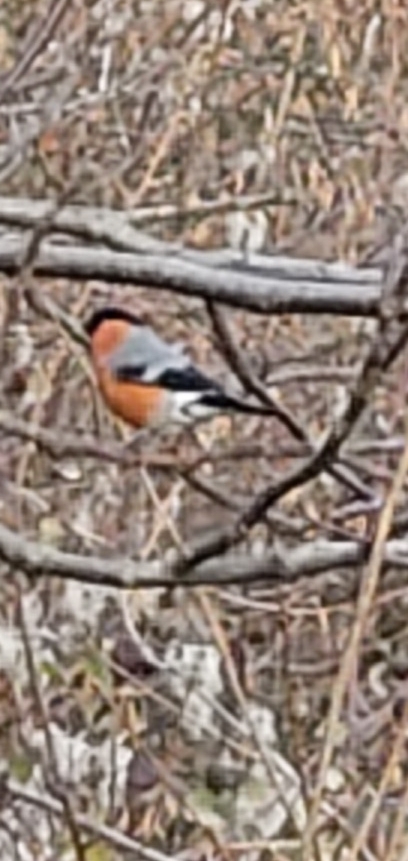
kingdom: Animalia
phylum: Chordata
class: Aves
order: Passeriformes
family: Fringillidae
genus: Pyrrhula
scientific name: Pyrrhula pyrrhula
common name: Eurasian bullfinch
